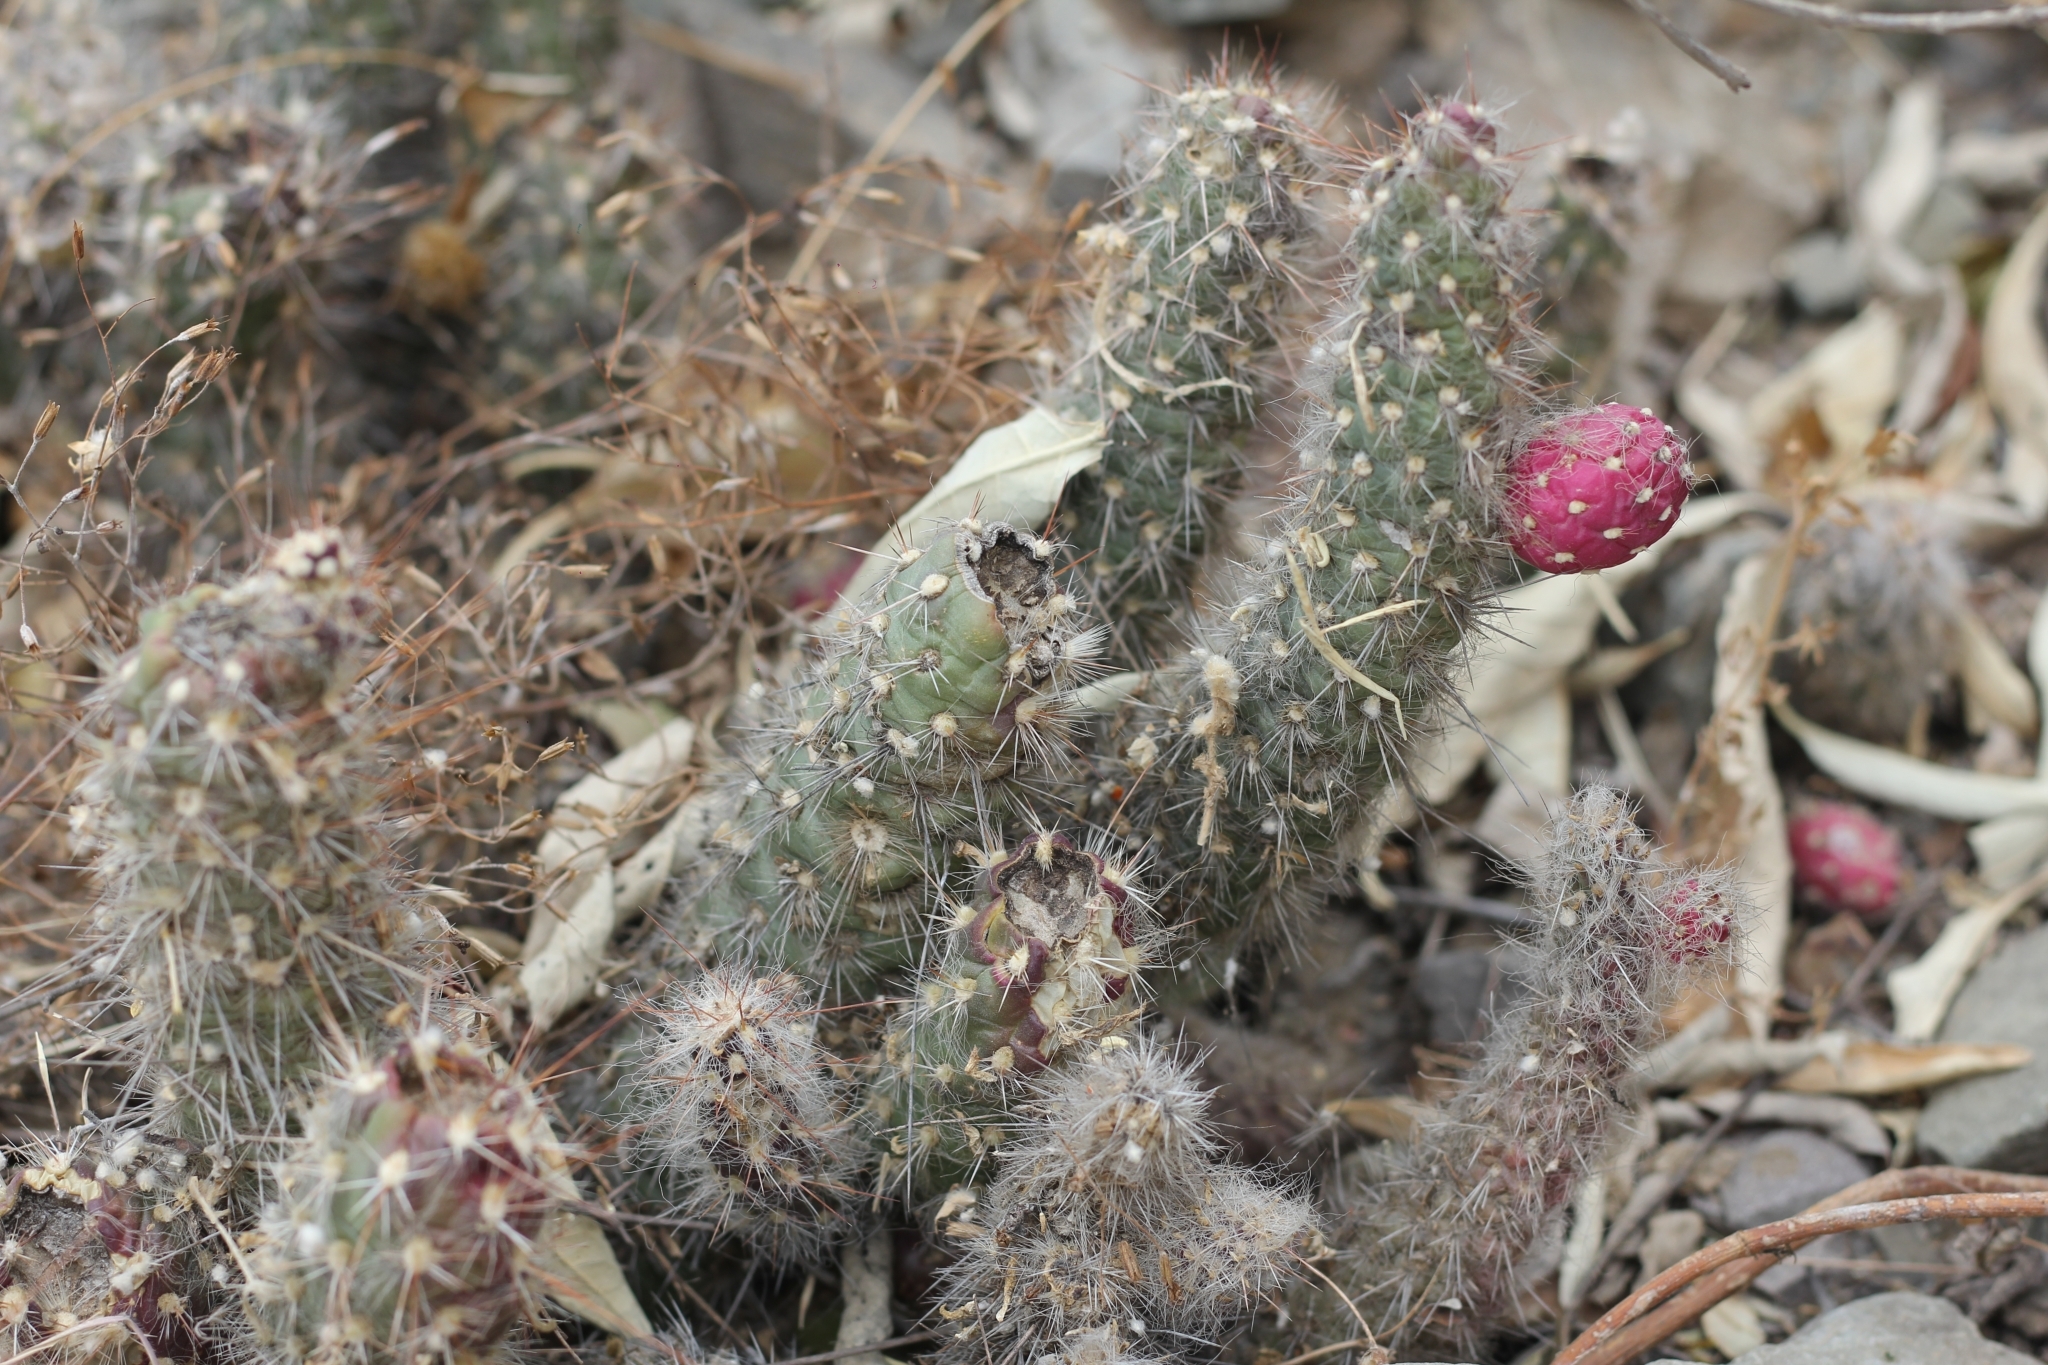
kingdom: Plantae
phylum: Tracheophyta
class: Magnoliopsida
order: Caryophyllales
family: Cactaceae
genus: Austrocylindropuntia
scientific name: Austrocylindropuntia shaferi
